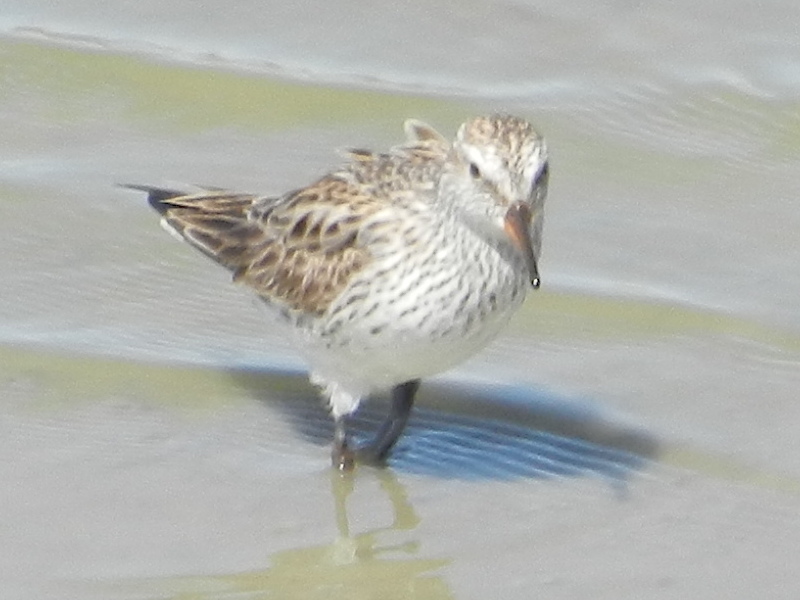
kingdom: Animalia
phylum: Chordata
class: Aves
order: Charadriiformes
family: Scolopacidae
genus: Calidris
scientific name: Calidris fuscicollis
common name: White-rumped sandpiper
